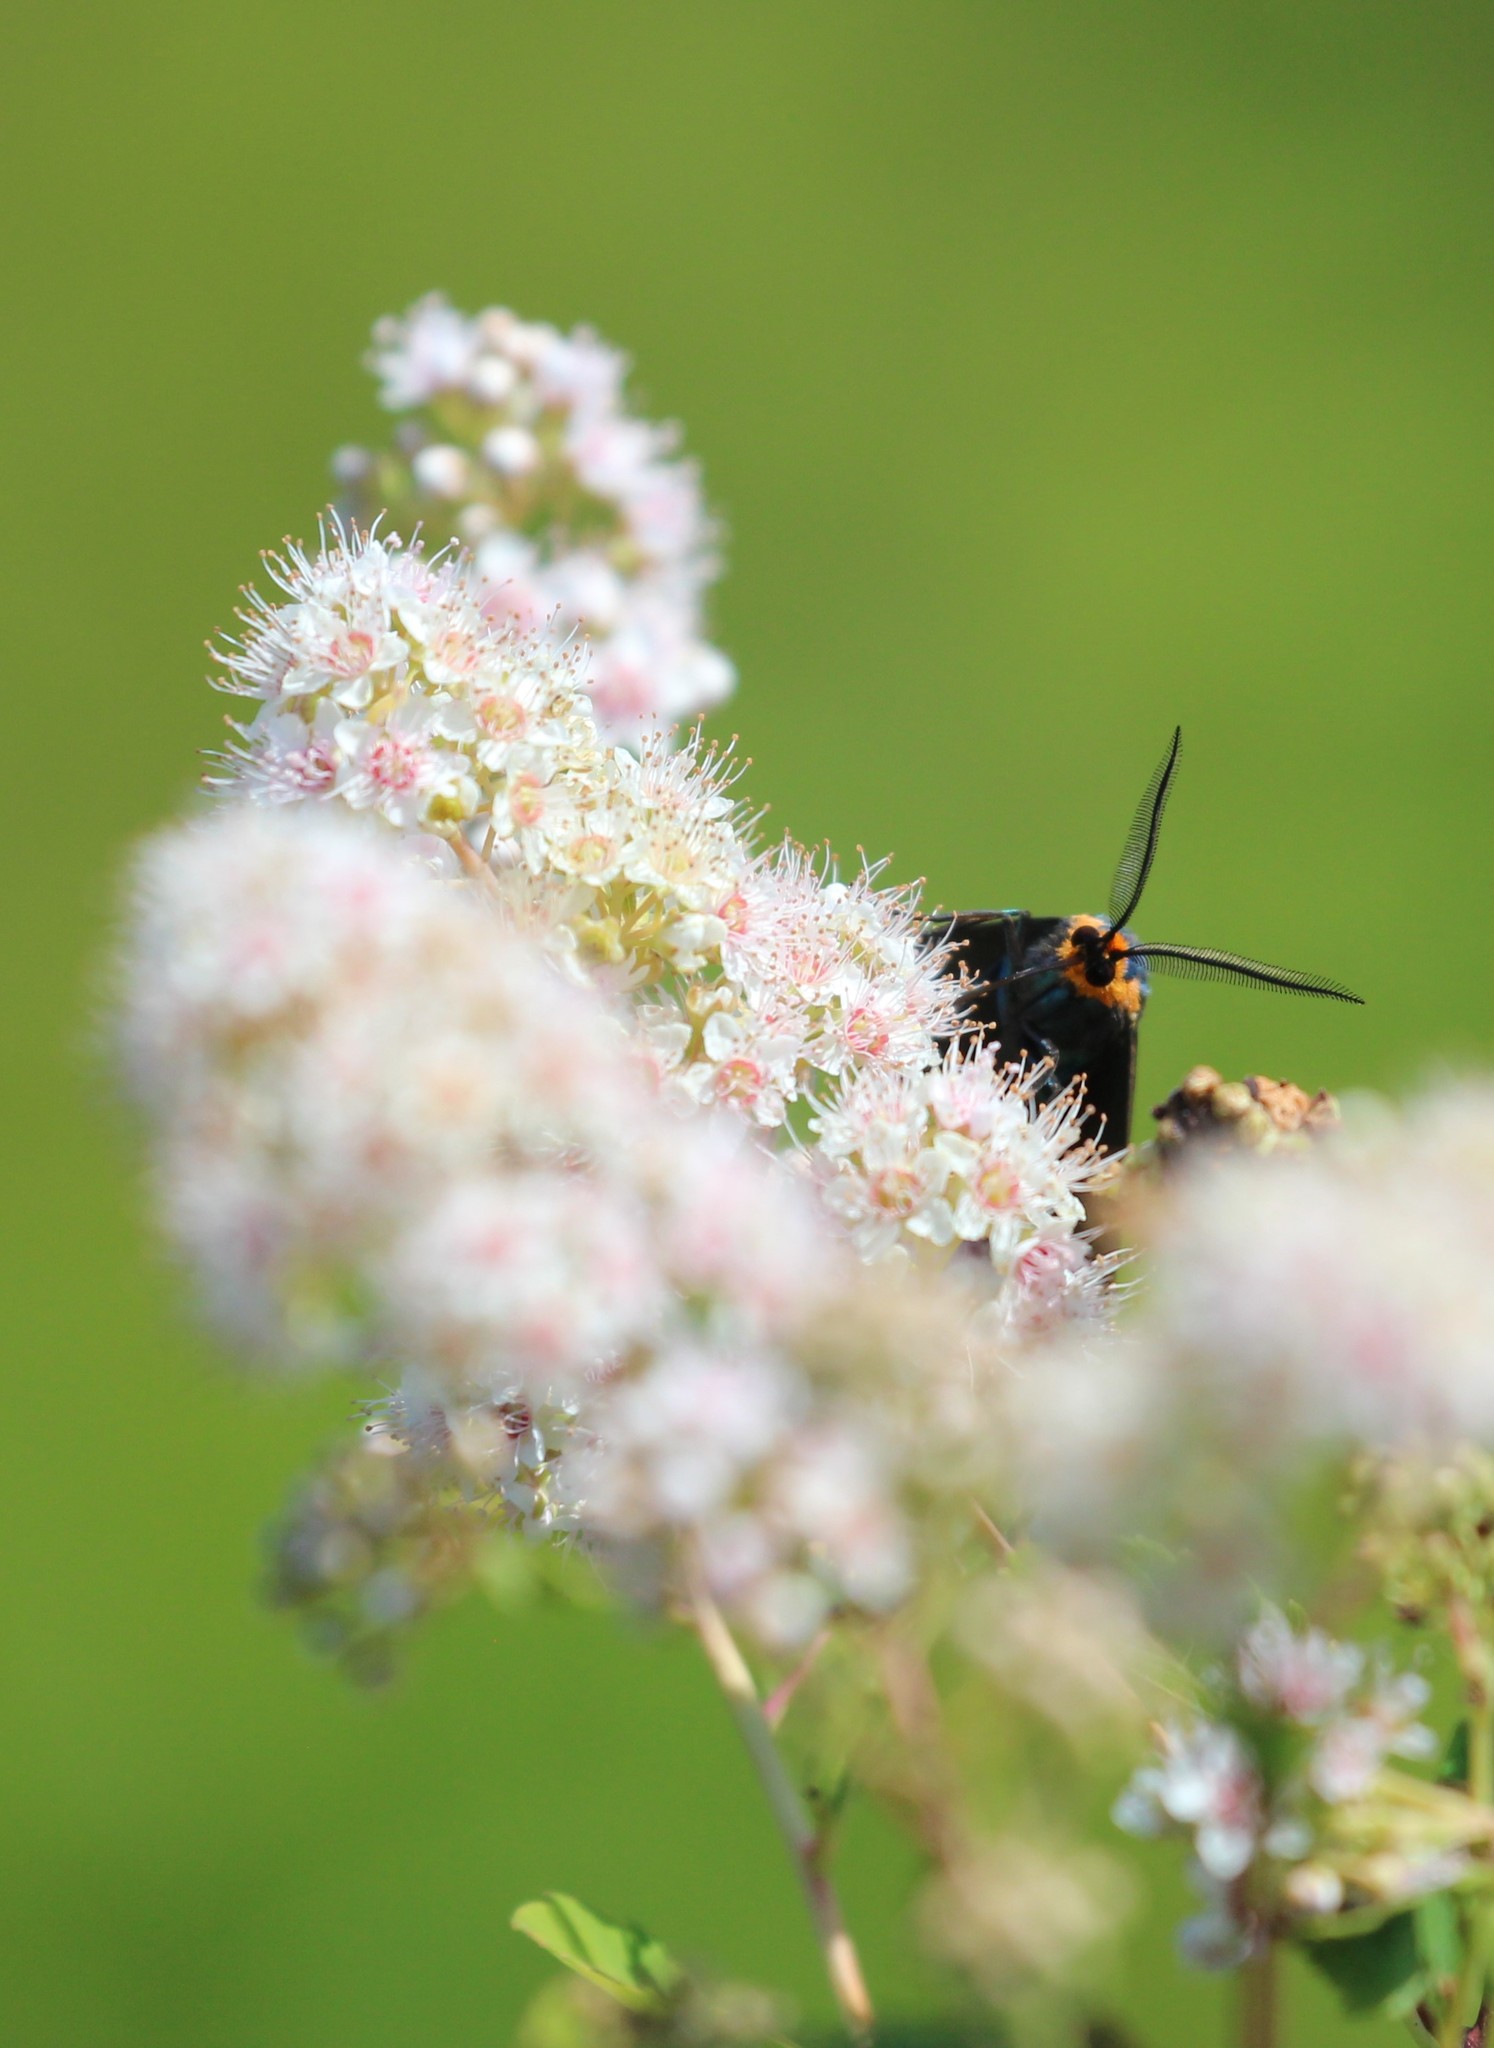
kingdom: Animalia
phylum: Arthropoda
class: Insecta
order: Lepidoptera
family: Erebidae
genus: Ctenucha
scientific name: Ctenucha virginica
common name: Virginia ctenucha moth
